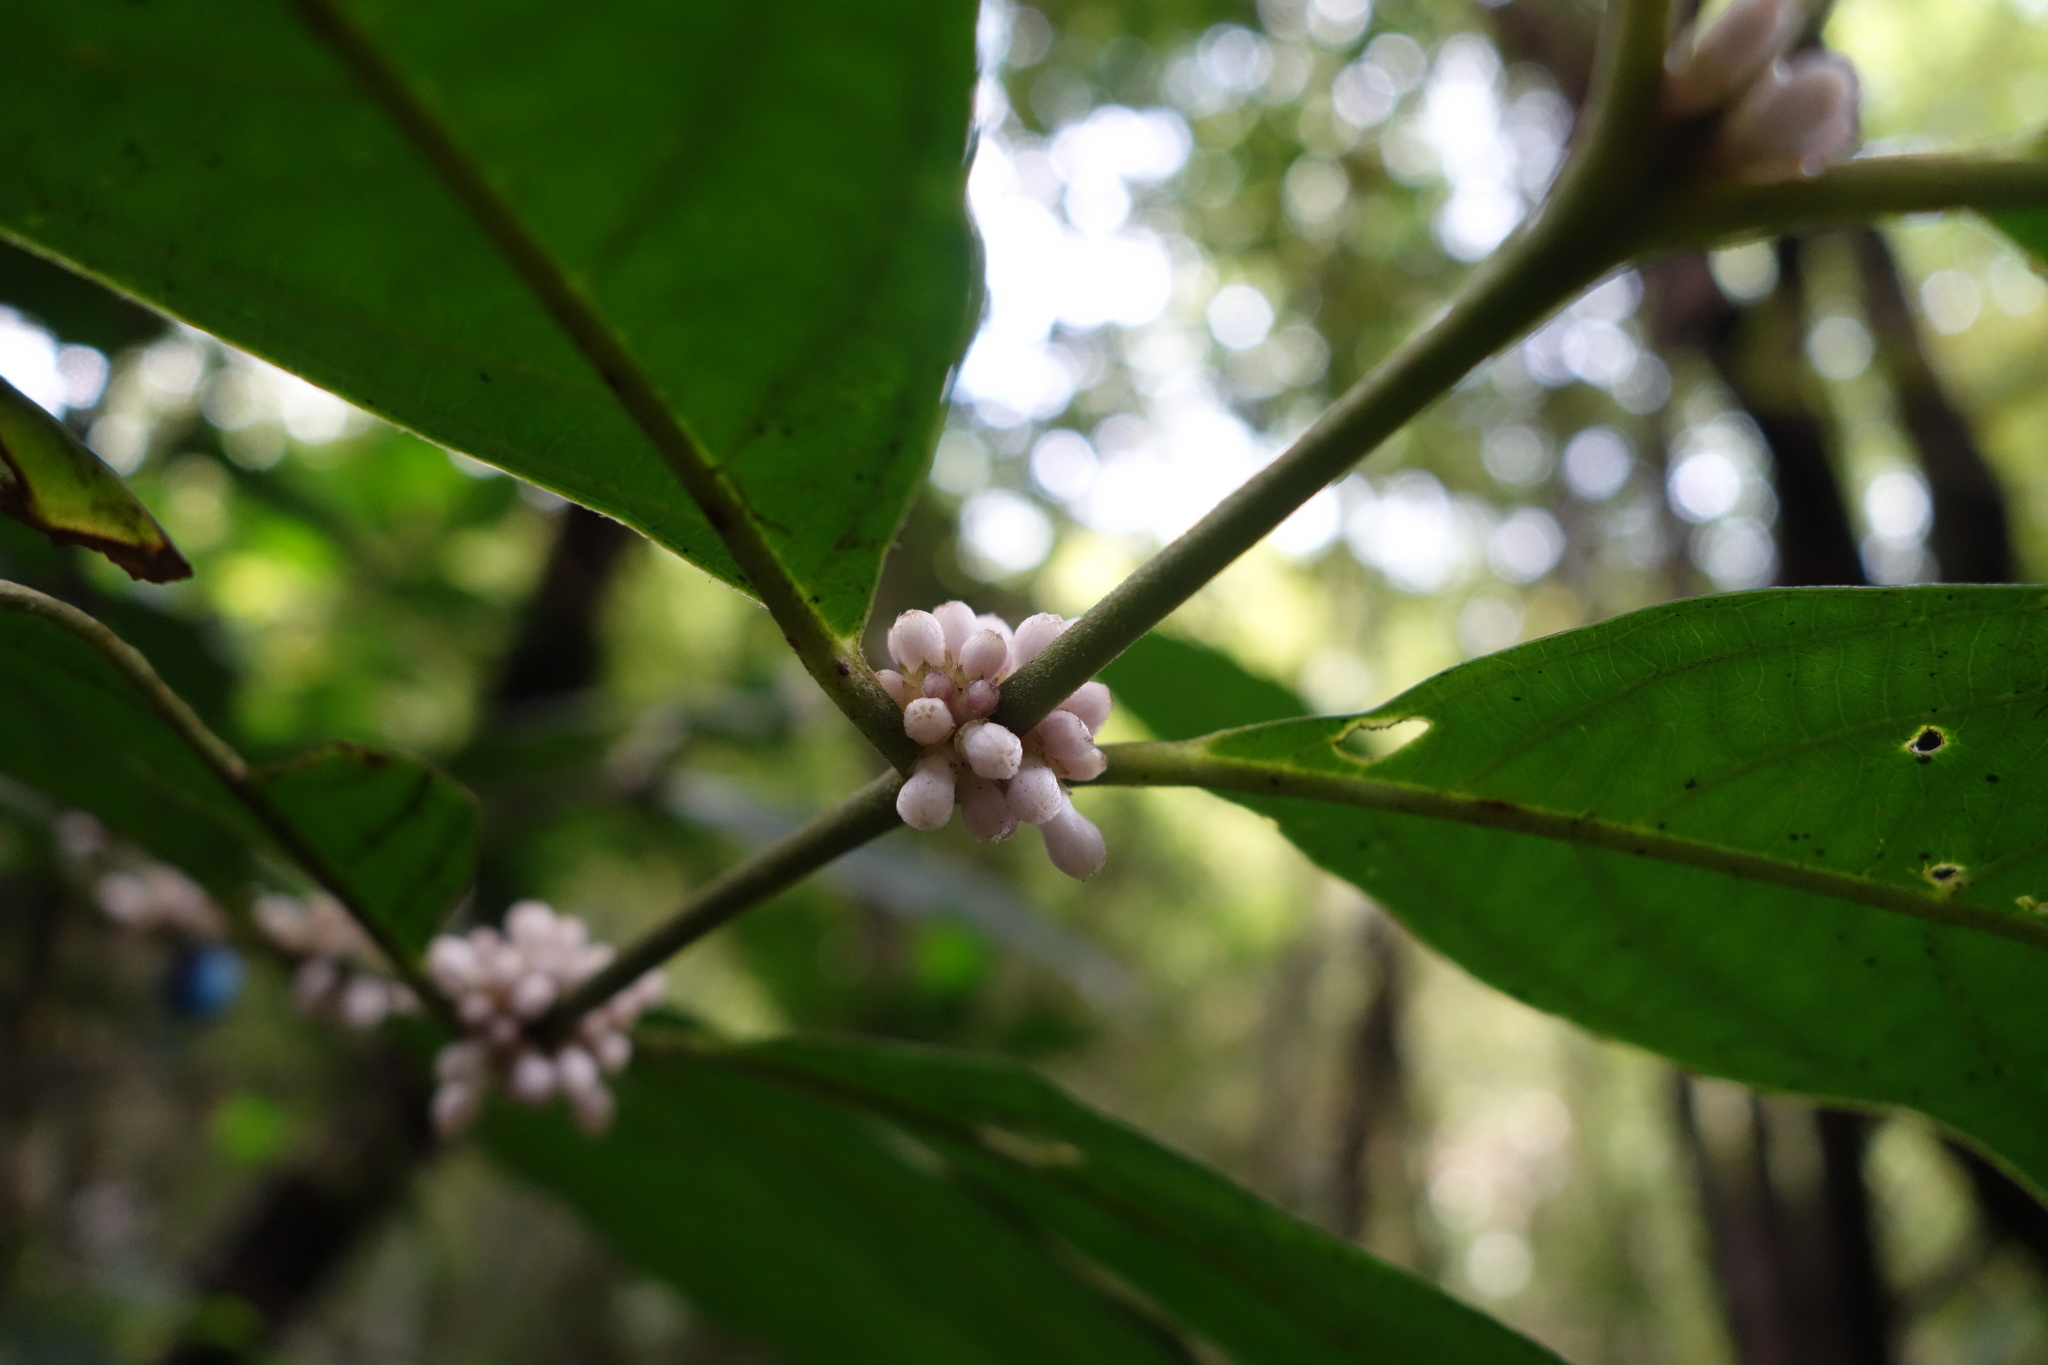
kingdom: Plantae
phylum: Tracheophyta
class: Magnoliopsida
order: Gentianales
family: Rubiaceae
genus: Lasianthus
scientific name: Lasianthus fordii
